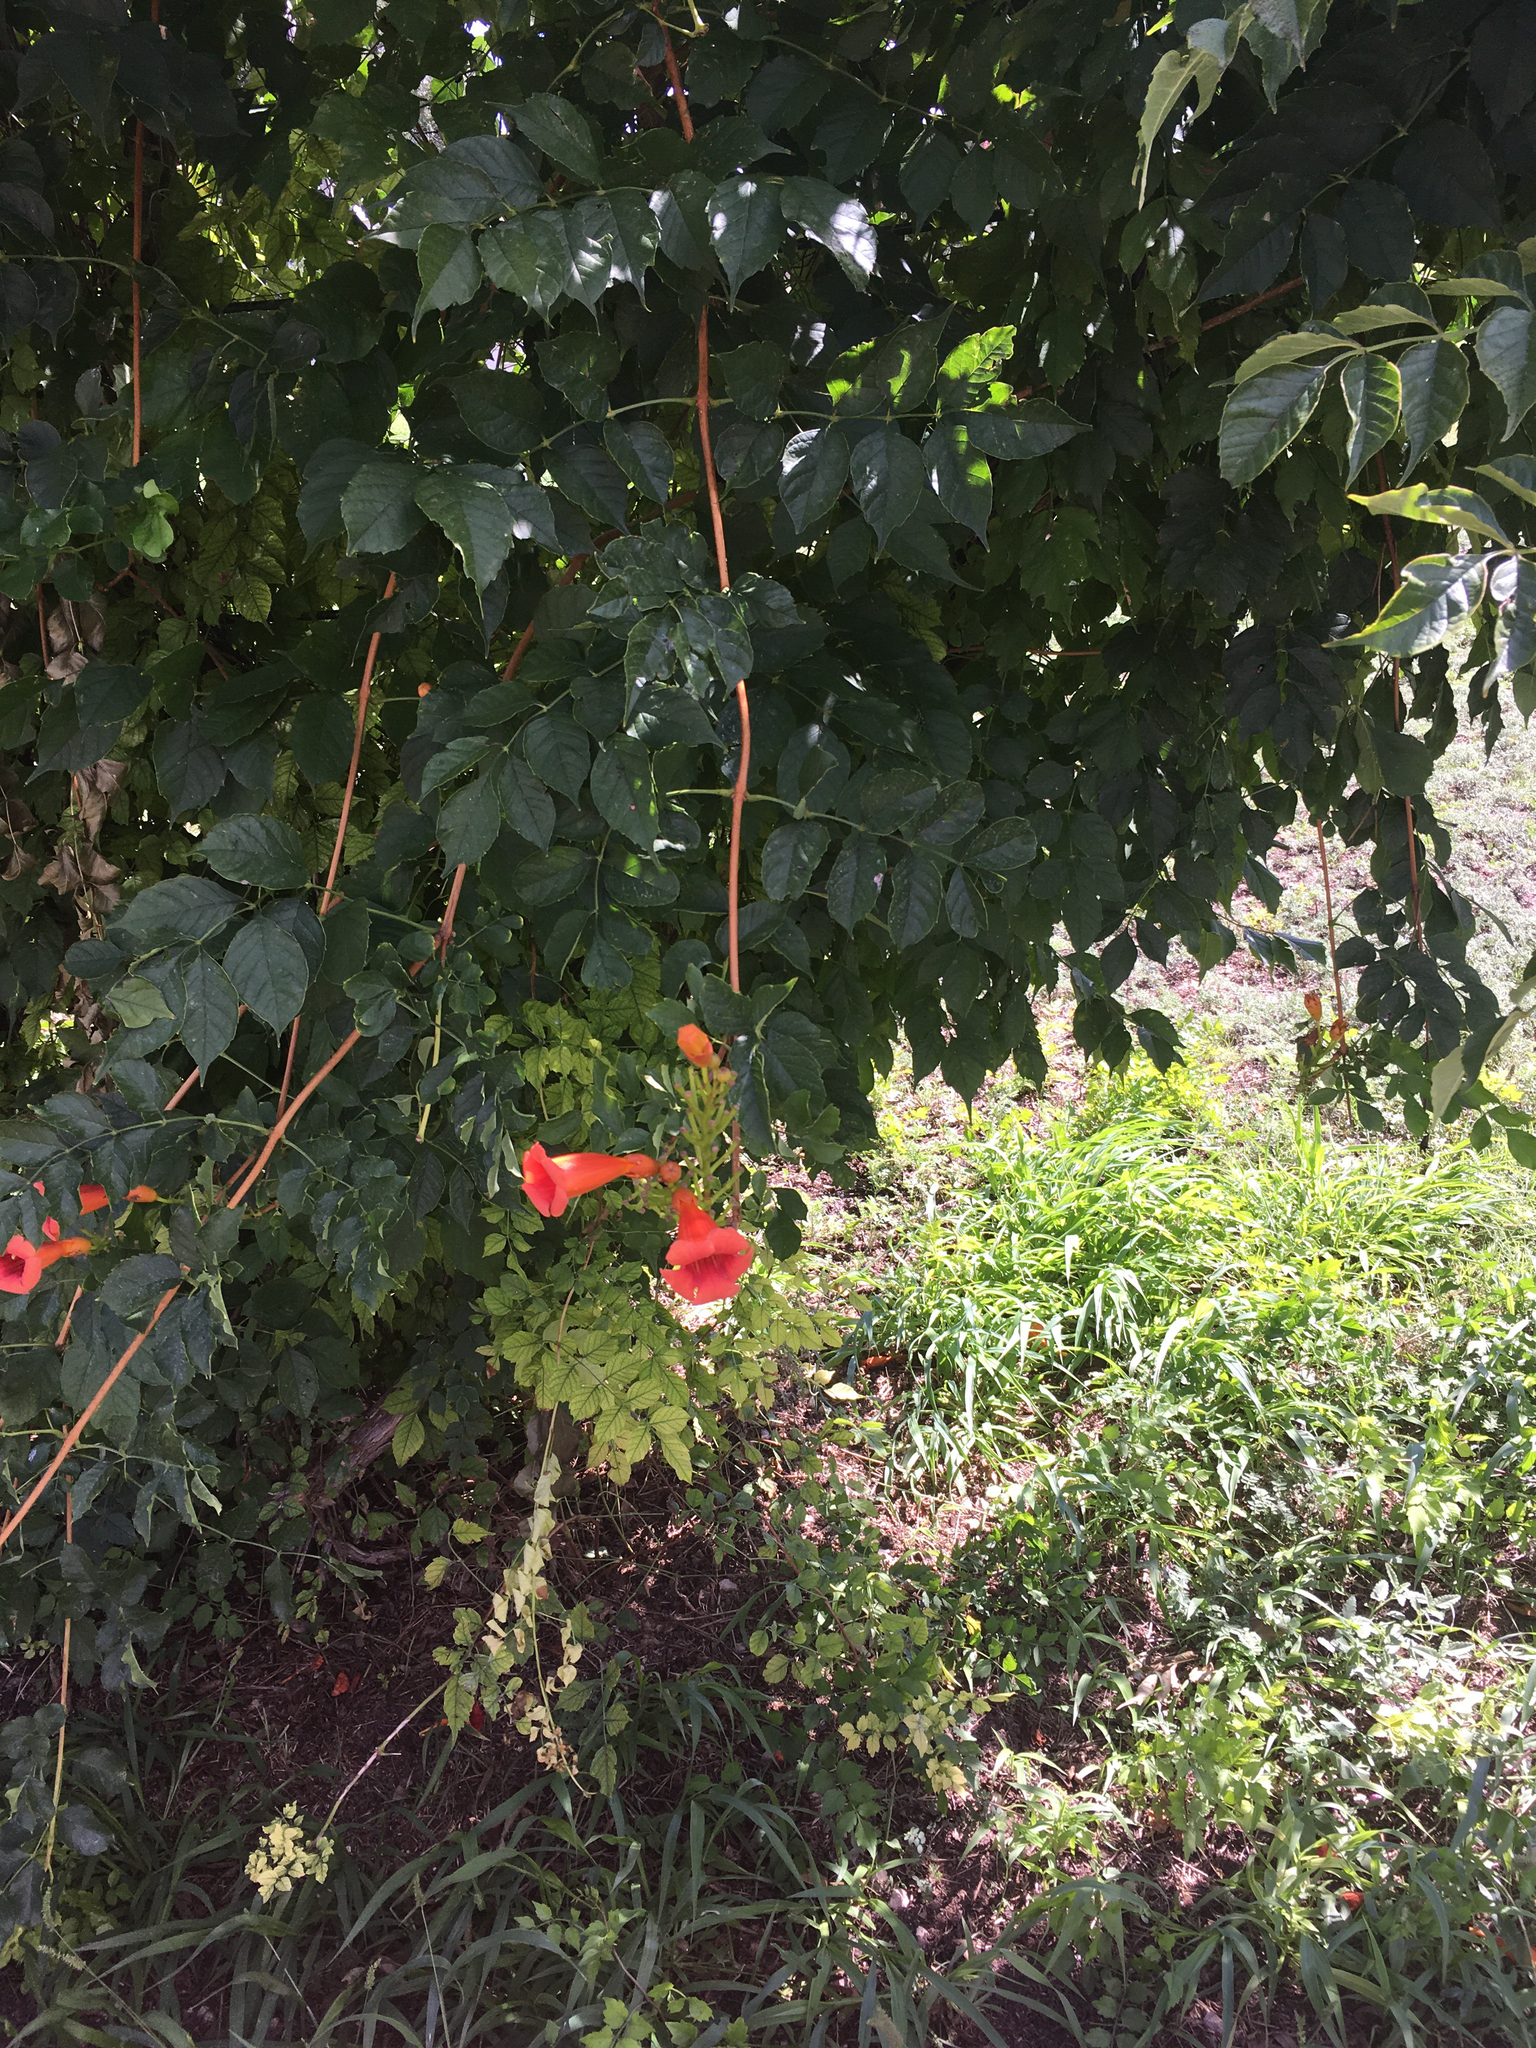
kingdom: Plantae
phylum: Tracheophyta
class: Magnoliopsida
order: Lamiales
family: Bignoniaceae
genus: Campsis
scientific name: Campsis radicans
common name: Trumpet-creeper
